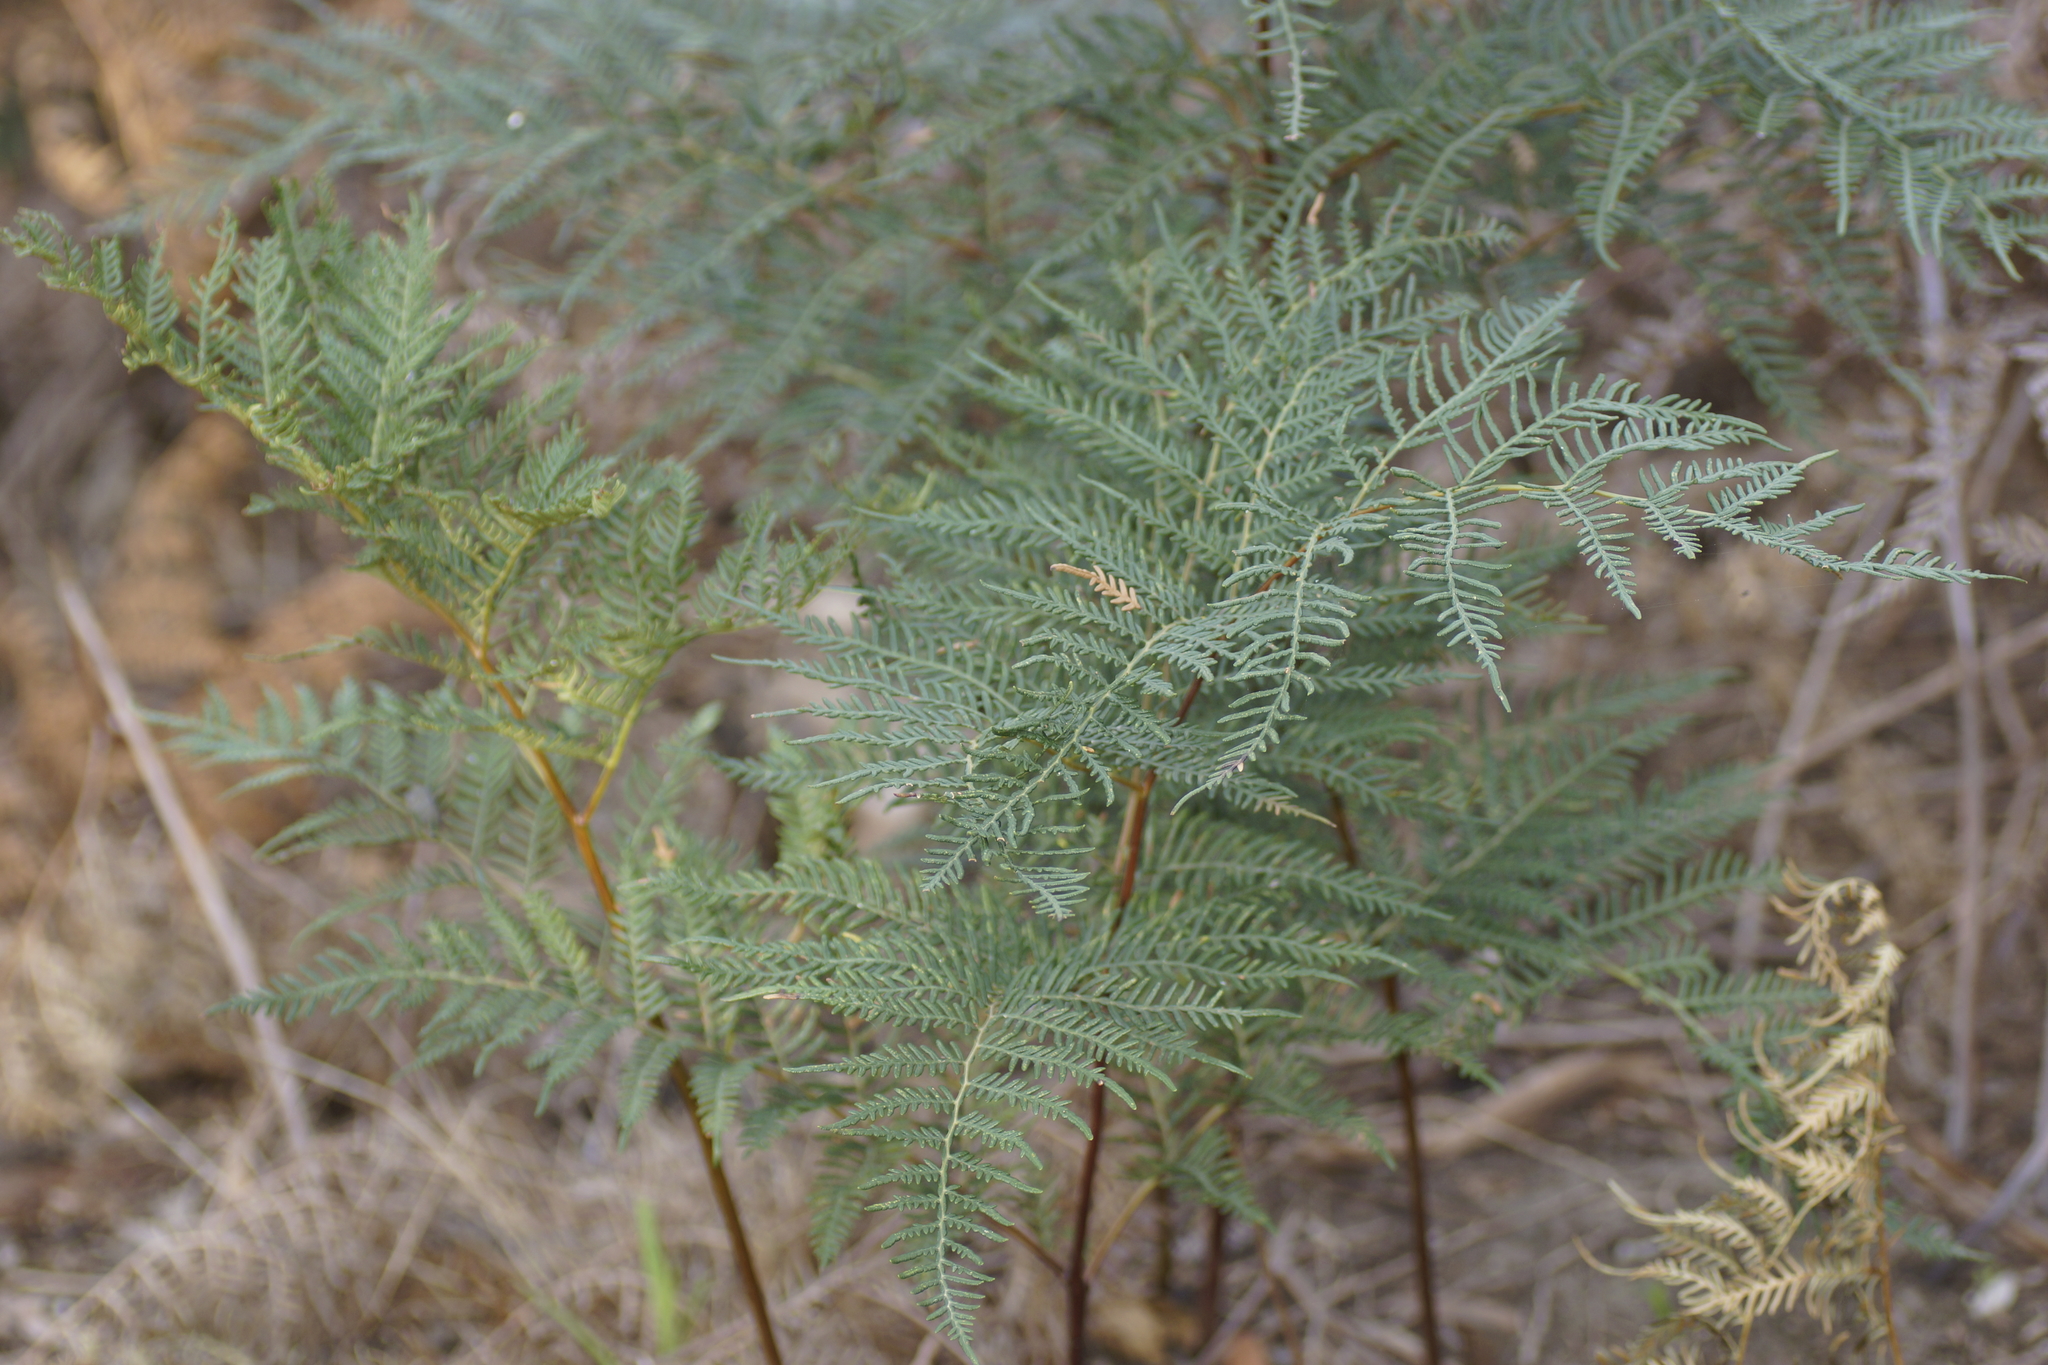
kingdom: Plantae
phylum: Tracheophyta
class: Polypodiopsida
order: Polypodiales
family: Dennstaedtiaceae
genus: Pteridium
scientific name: Pteridium esculentum
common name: Bracken fern
